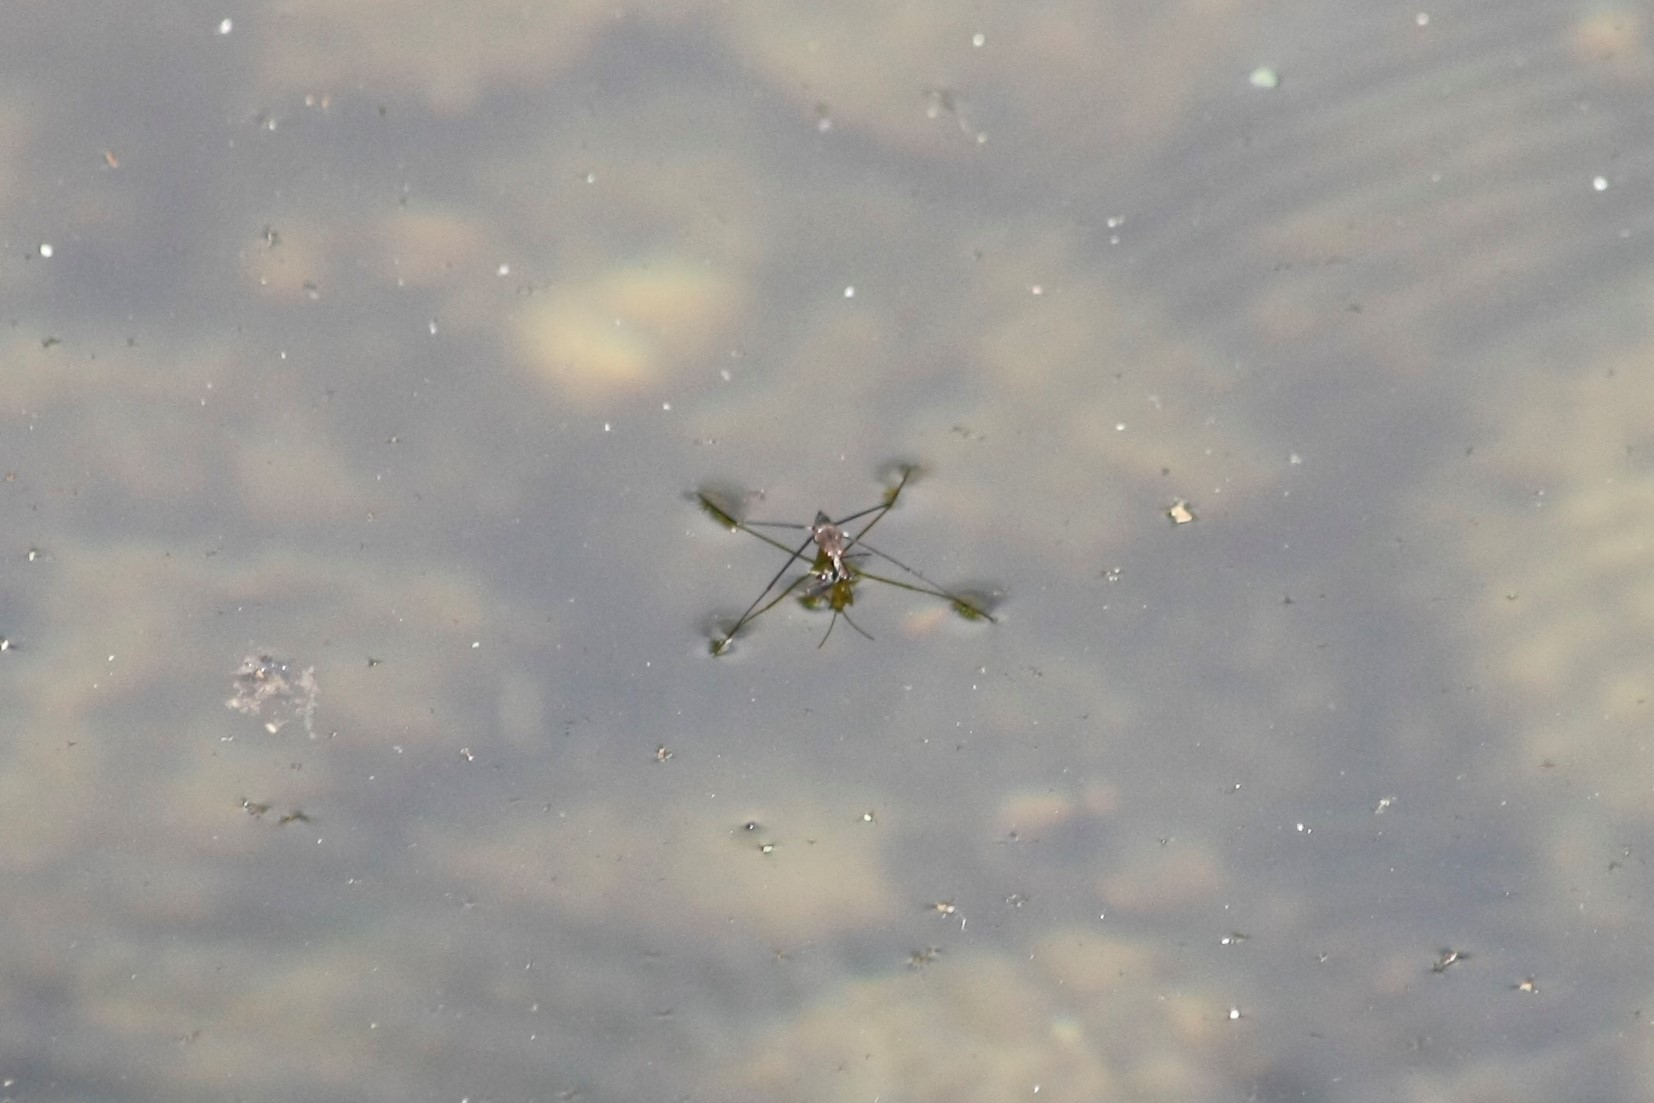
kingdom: Animalia
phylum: Arthropoda
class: Insecta
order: Hemiptera
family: Gerridae
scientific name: Gerridae
